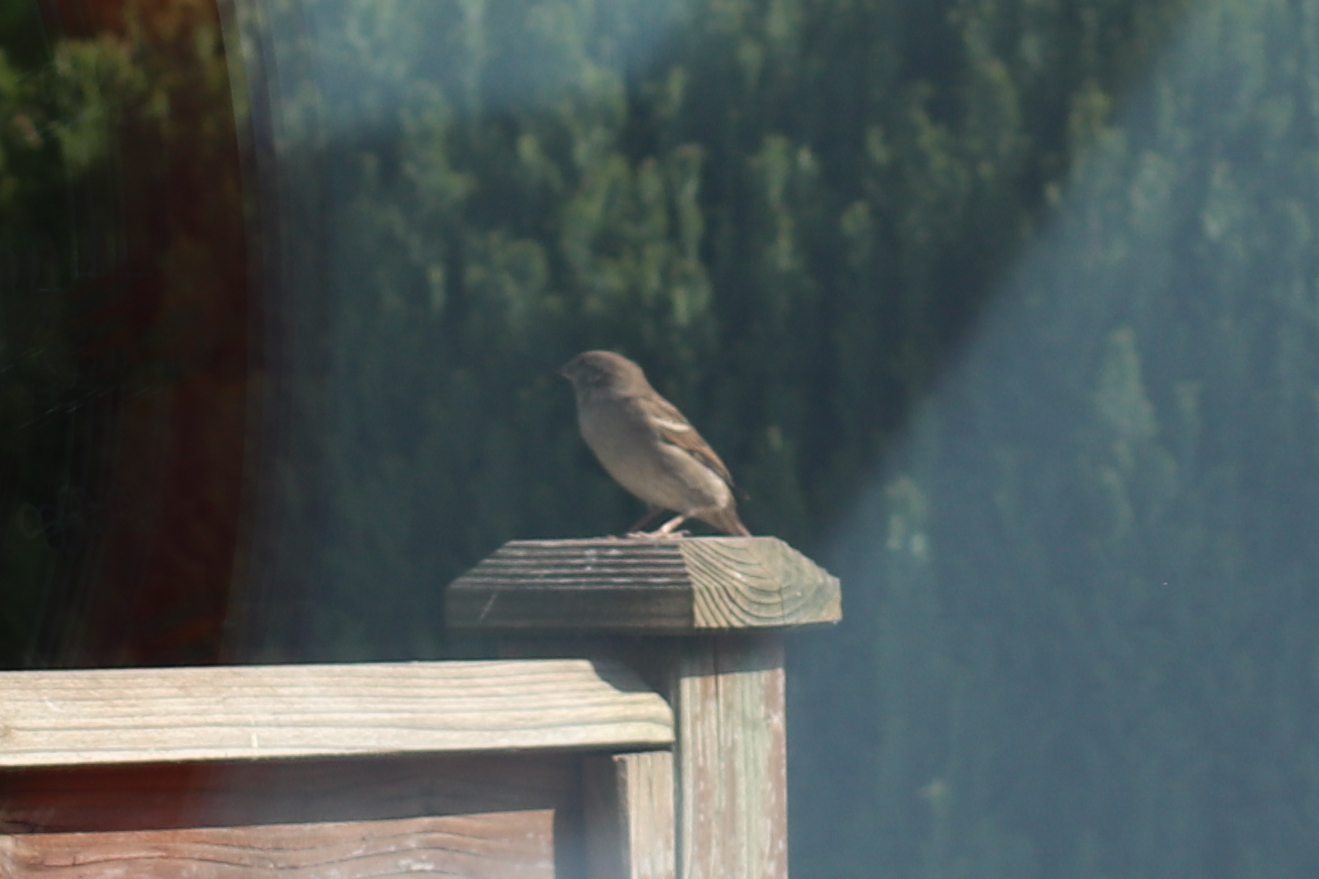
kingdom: Animalia
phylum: Chordata
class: Aves
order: Passeriformes
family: Passeridae
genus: Passer
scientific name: Passer domesticus
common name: House sparrow
